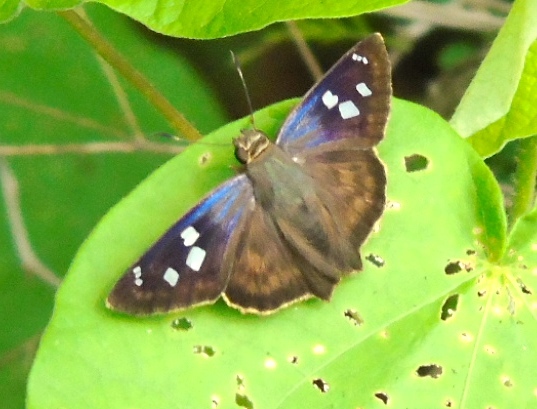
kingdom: Animalia
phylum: Arthropoda
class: Insecta
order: Lepidoptera
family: Hesperiidae
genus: Polygonus
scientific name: Polygonus leo
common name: Hammoch skipper
